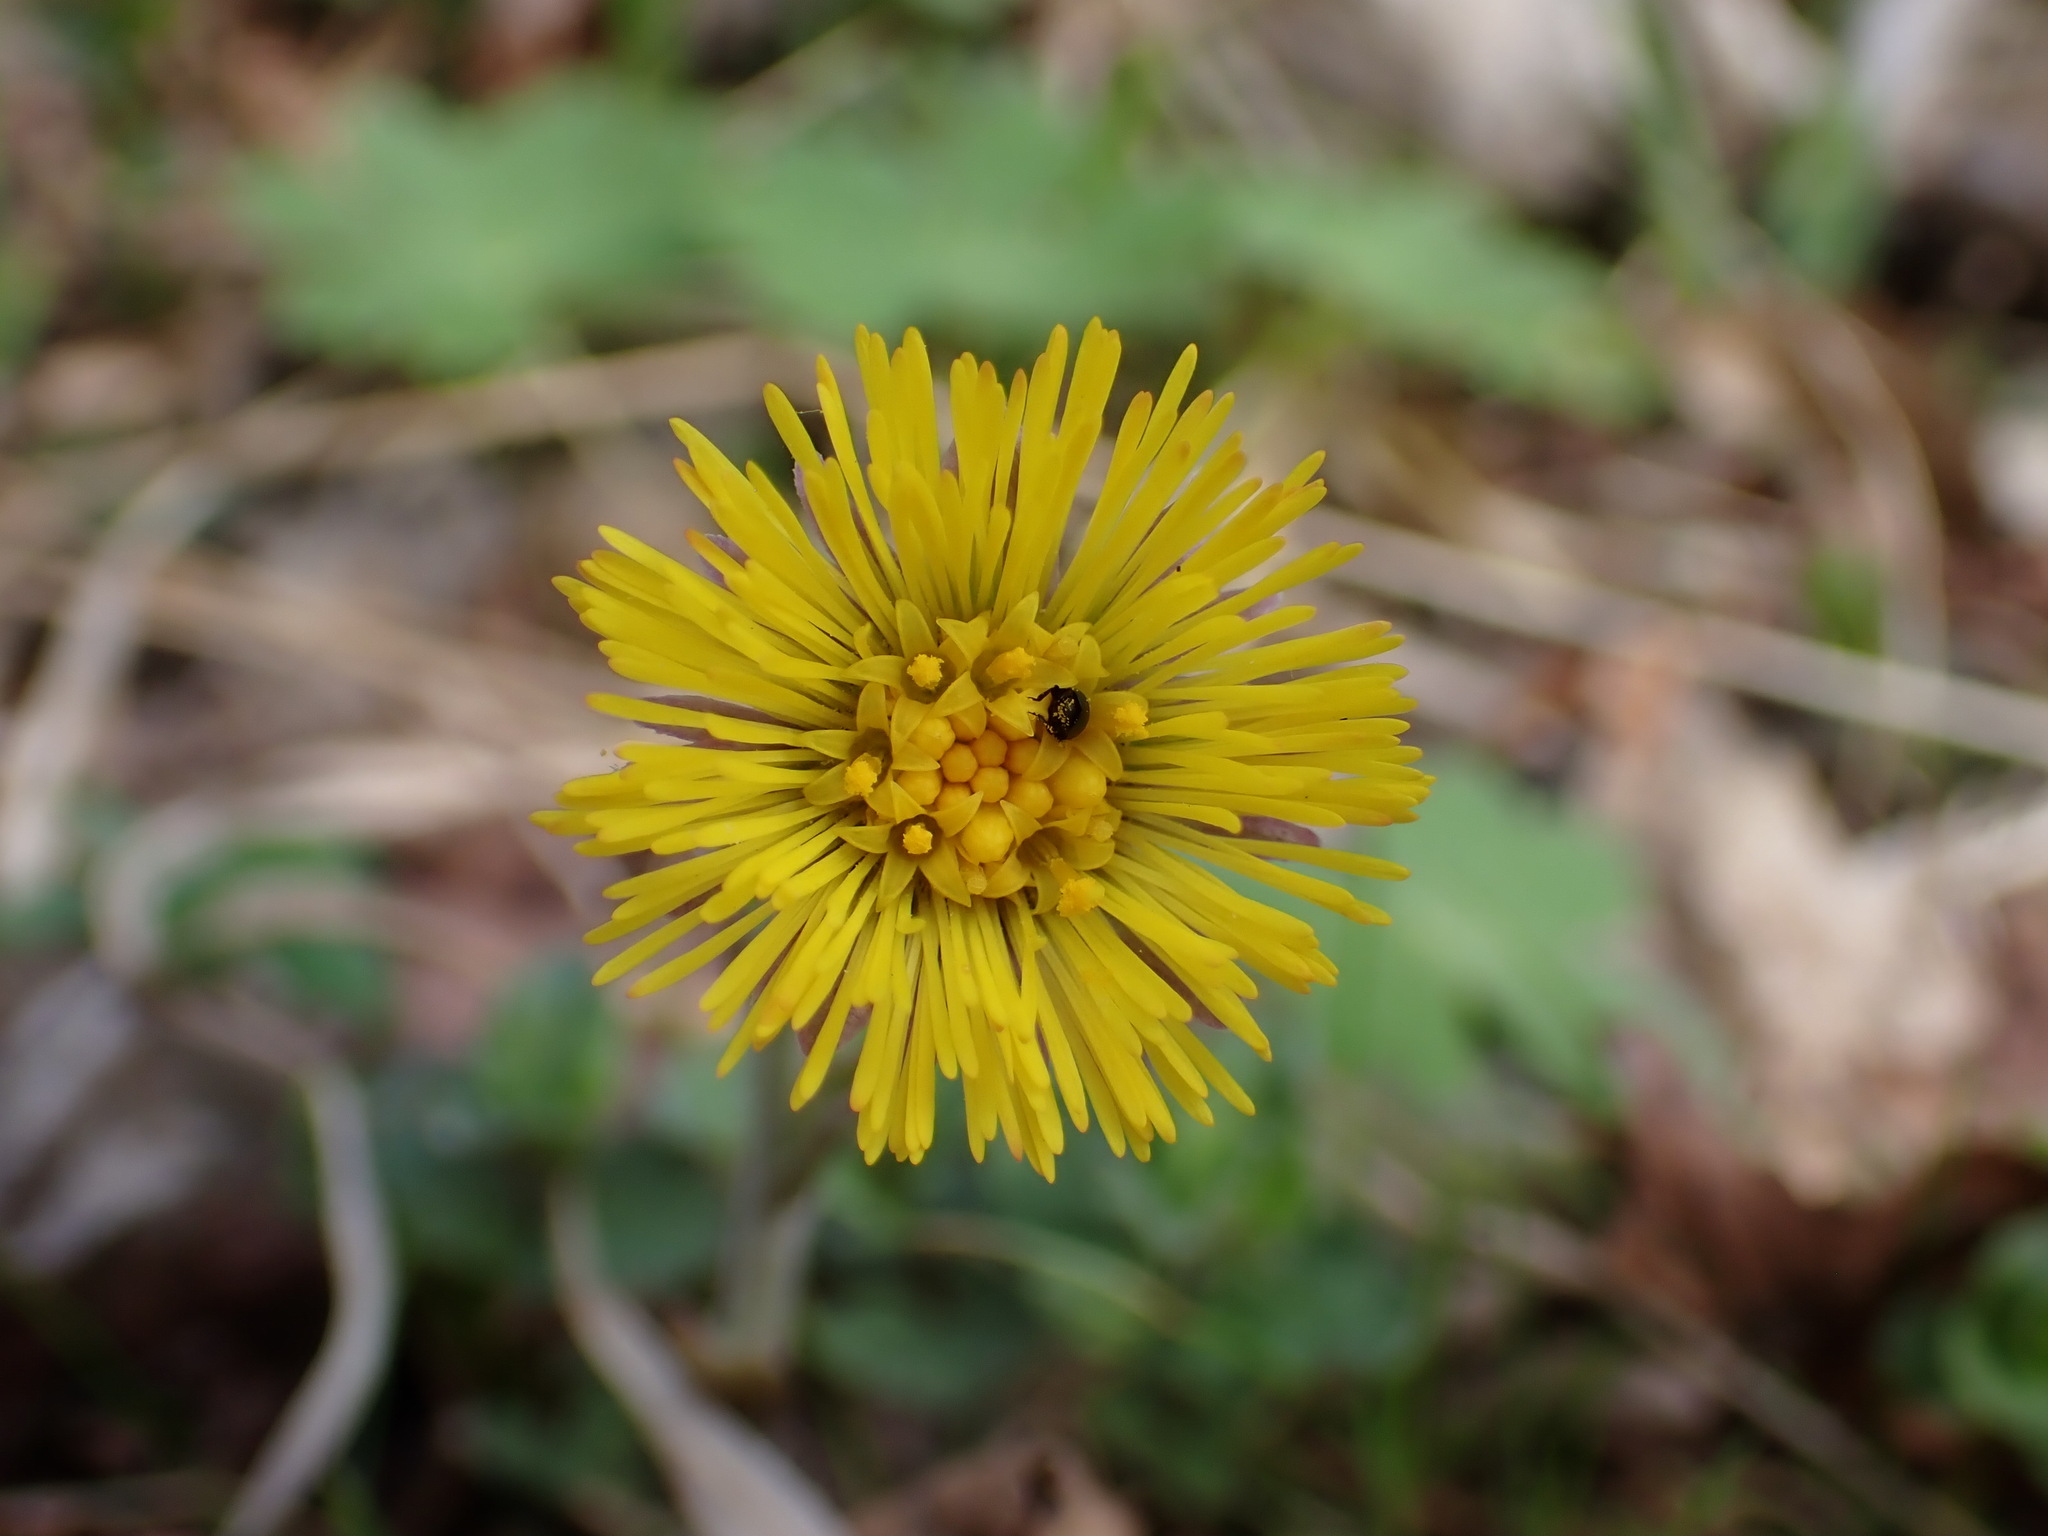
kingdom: Plantae
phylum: Tracheophyta
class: Magnoliopsida
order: Asterales
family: Asteraceae
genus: Tussilago
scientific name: Tussilago farfara
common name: Coltsfoot
